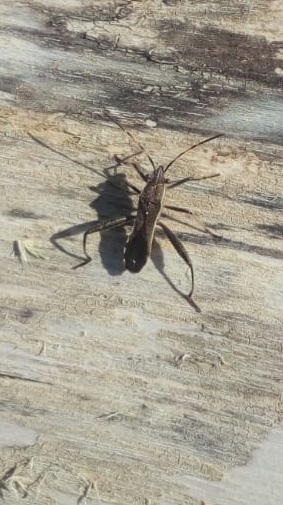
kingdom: Animalia
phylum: Arthropoda
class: Insecta
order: Hemiptera
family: Alydidae
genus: Camptopus
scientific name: Camptopus lateralis
